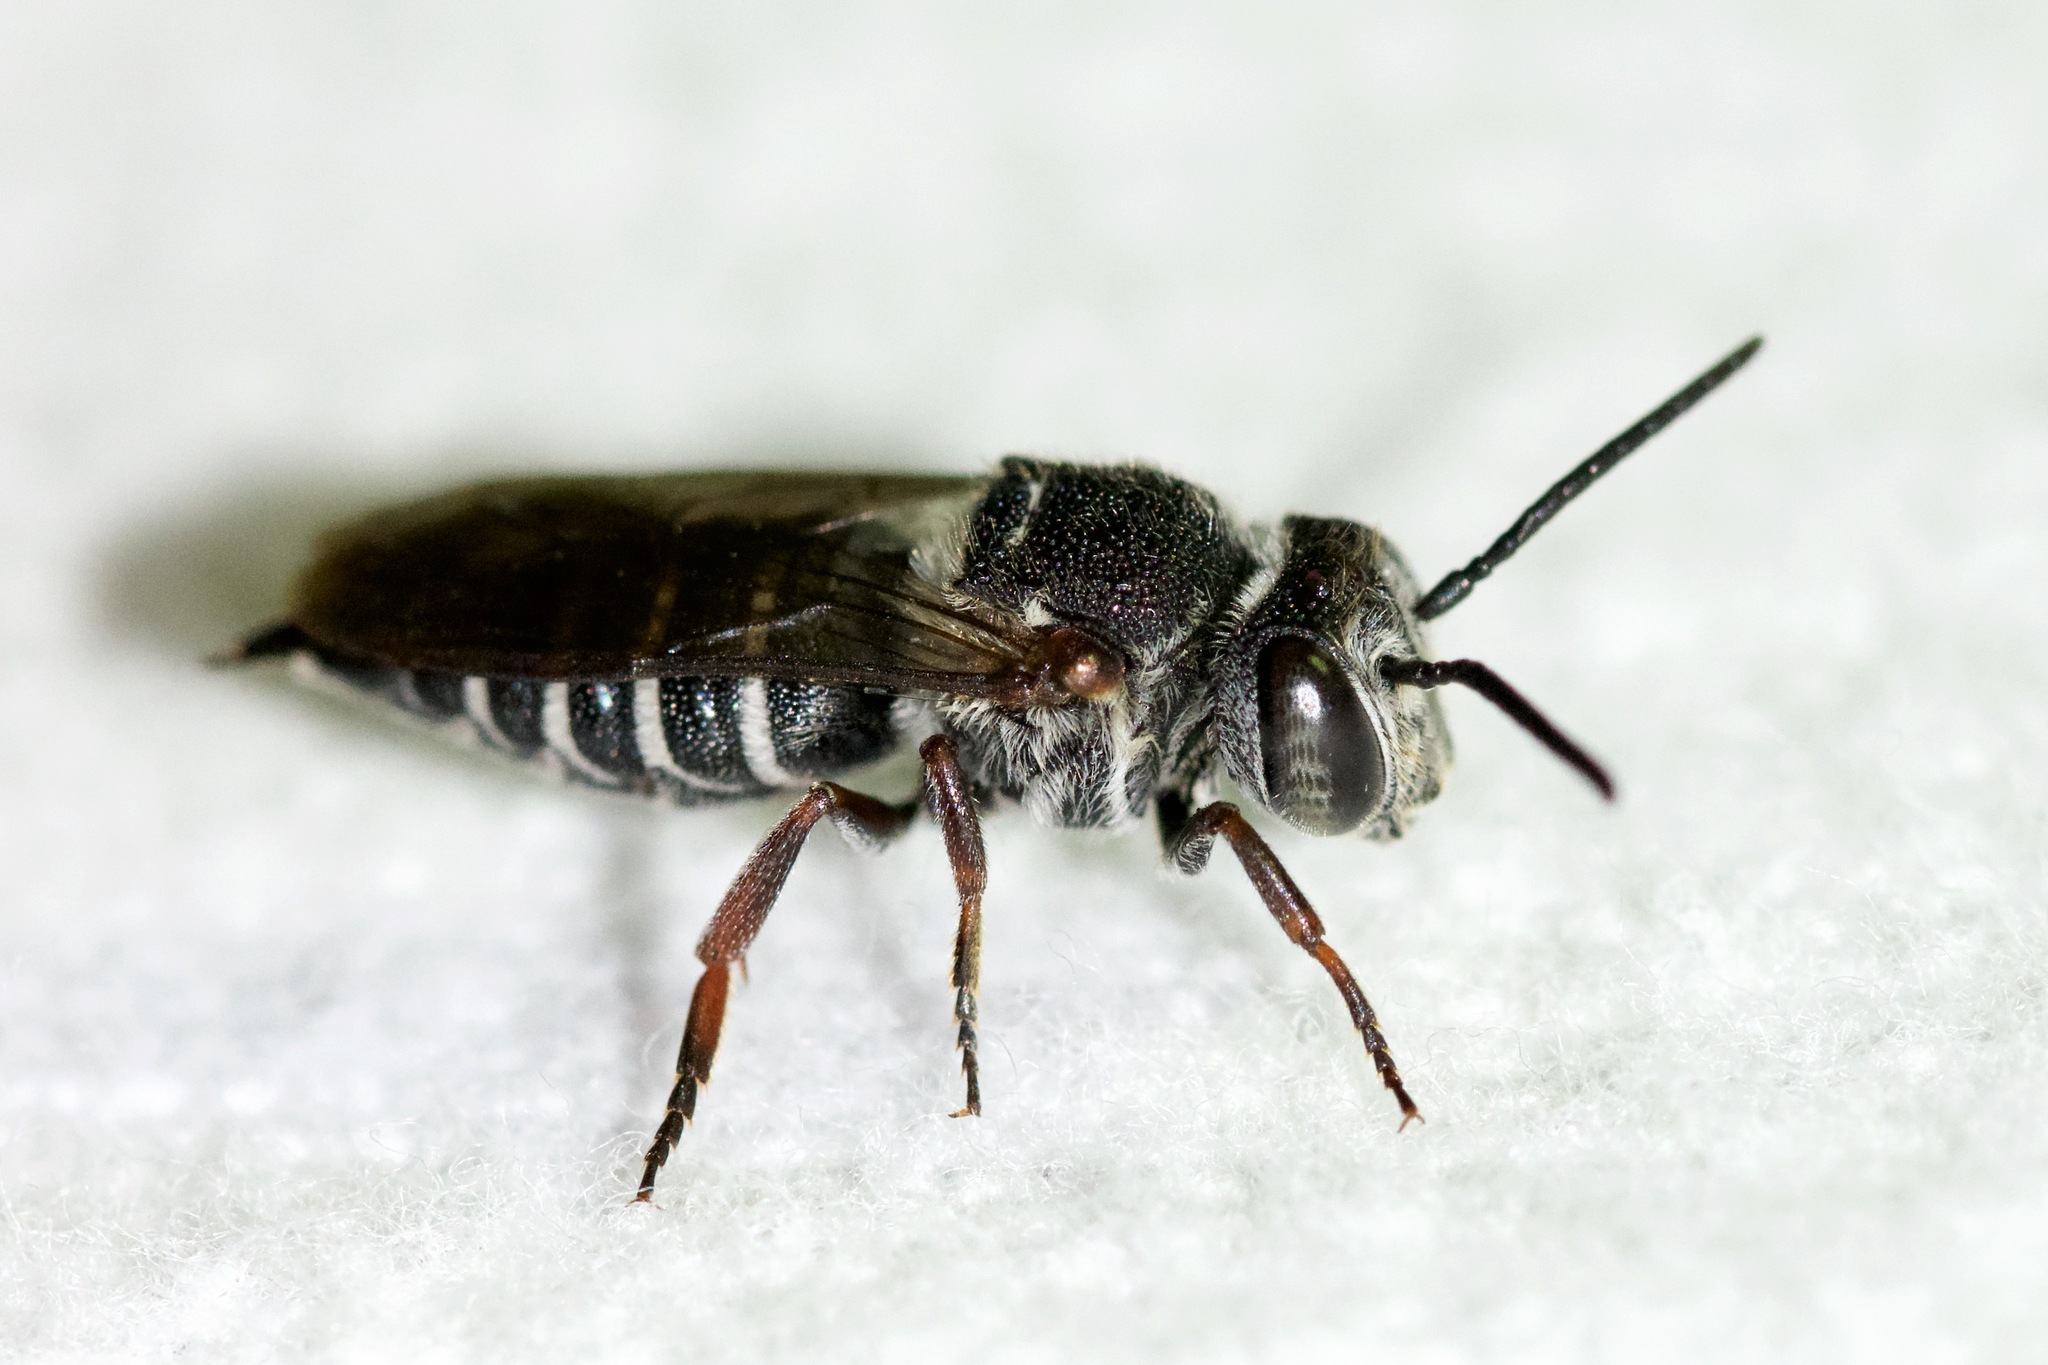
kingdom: Animalia
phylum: Arthropoda
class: Insecta
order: Hymenoptera
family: Megachilidae
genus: Coelioxys
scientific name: Coelioxys sayi
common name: Say's cuckoo leaf-cutter bee
